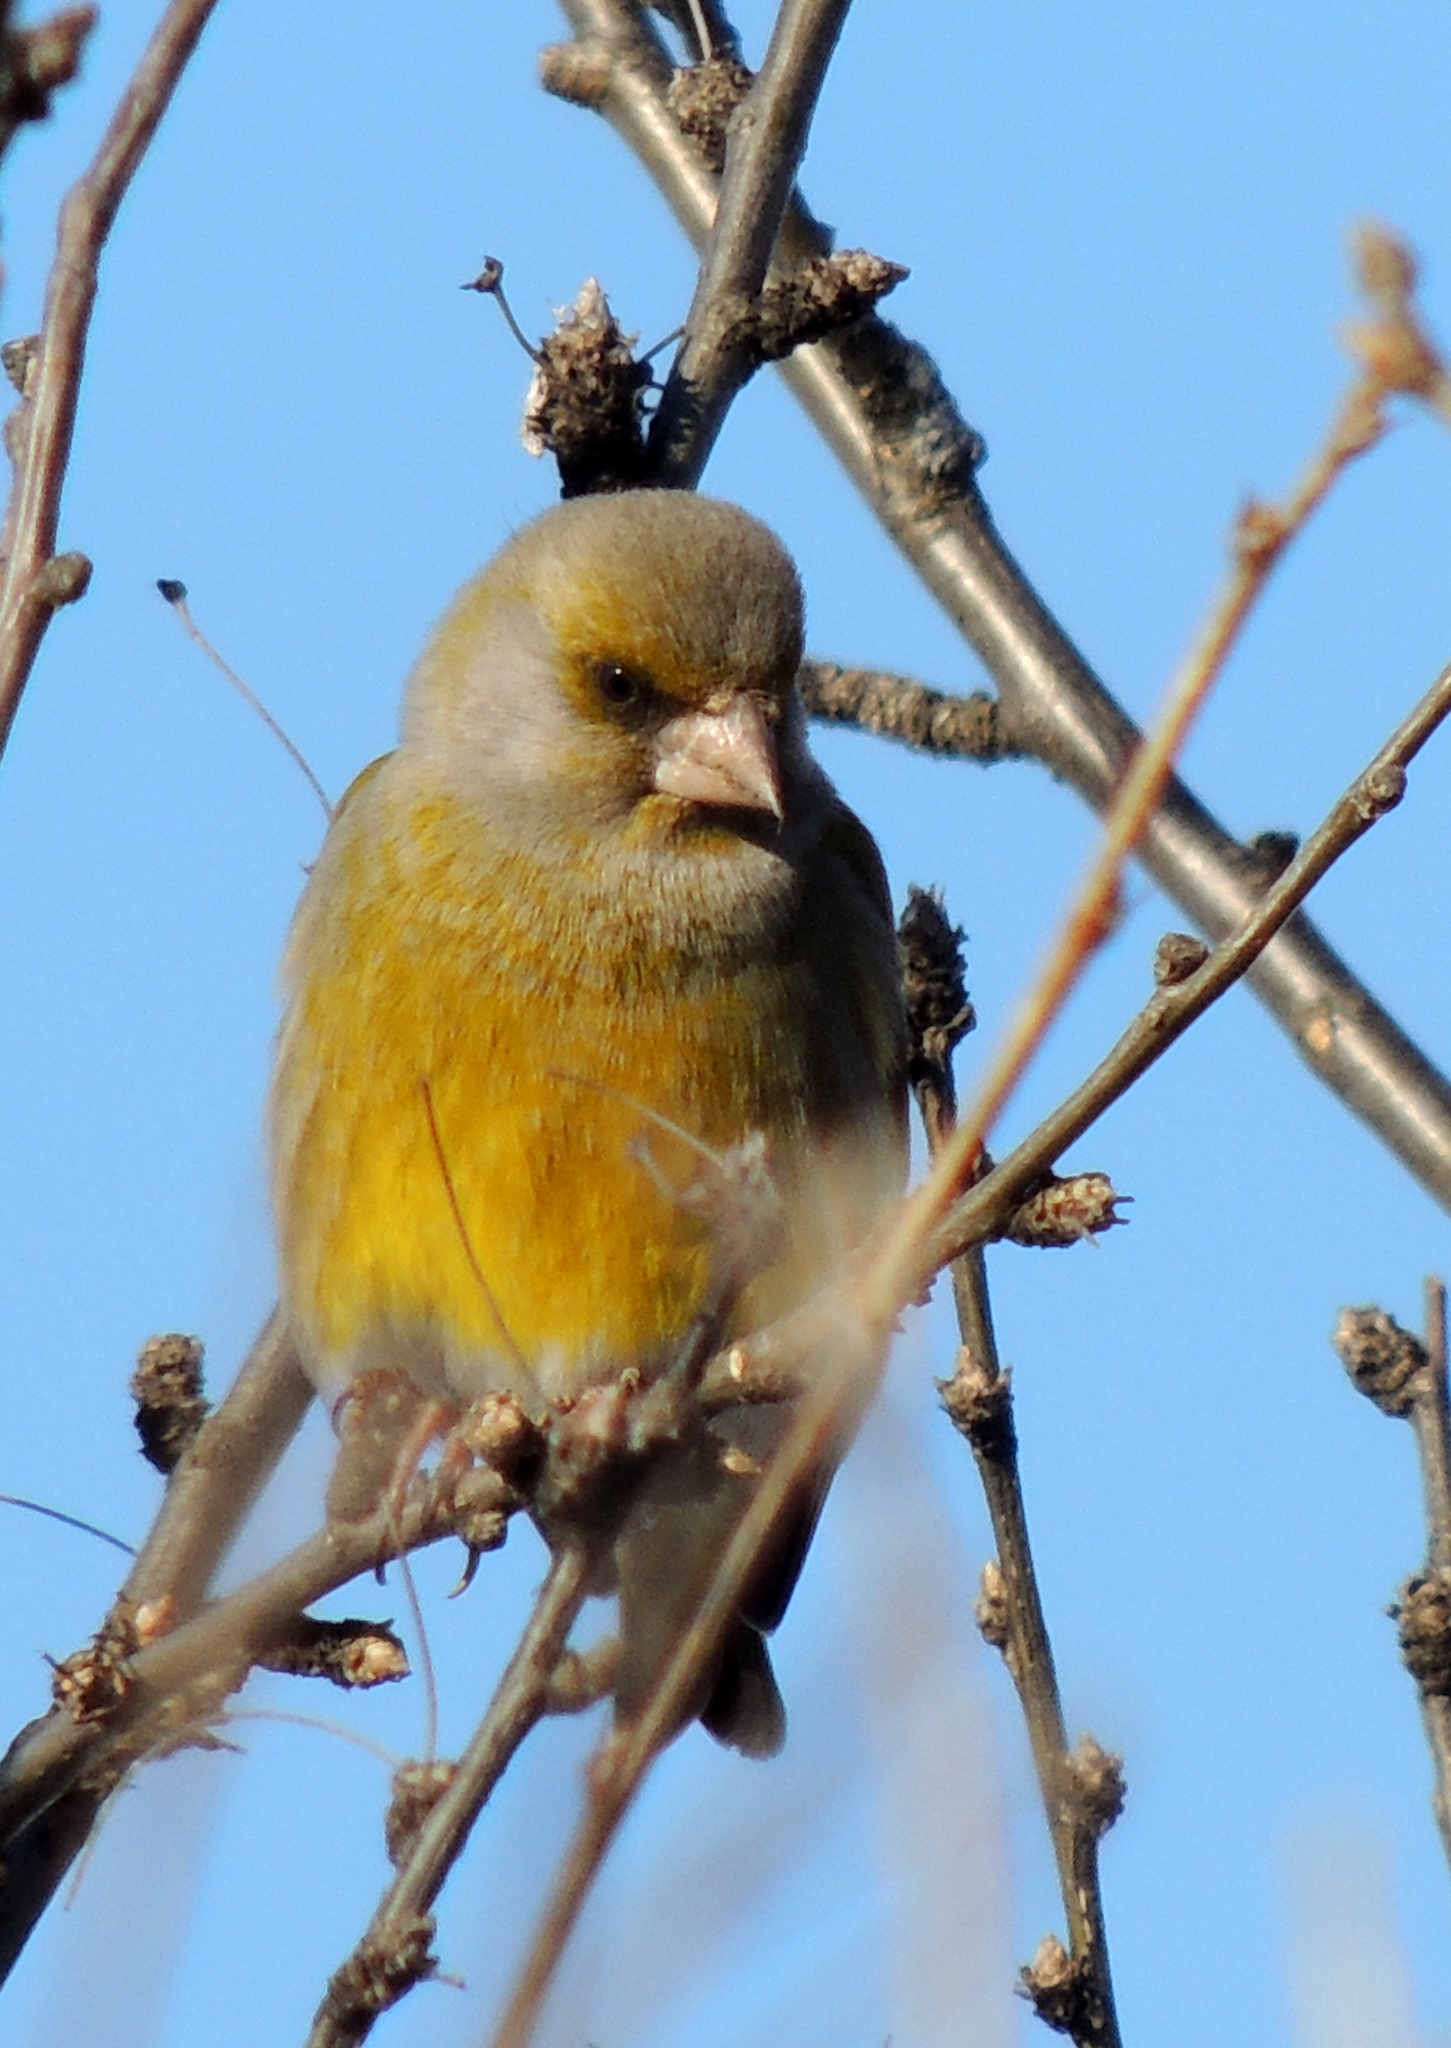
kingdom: Plantae
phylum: Tracheophyta
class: Liliopsida
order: Poales
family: Poaceae
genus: Chloris
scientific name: Chloris chloris
